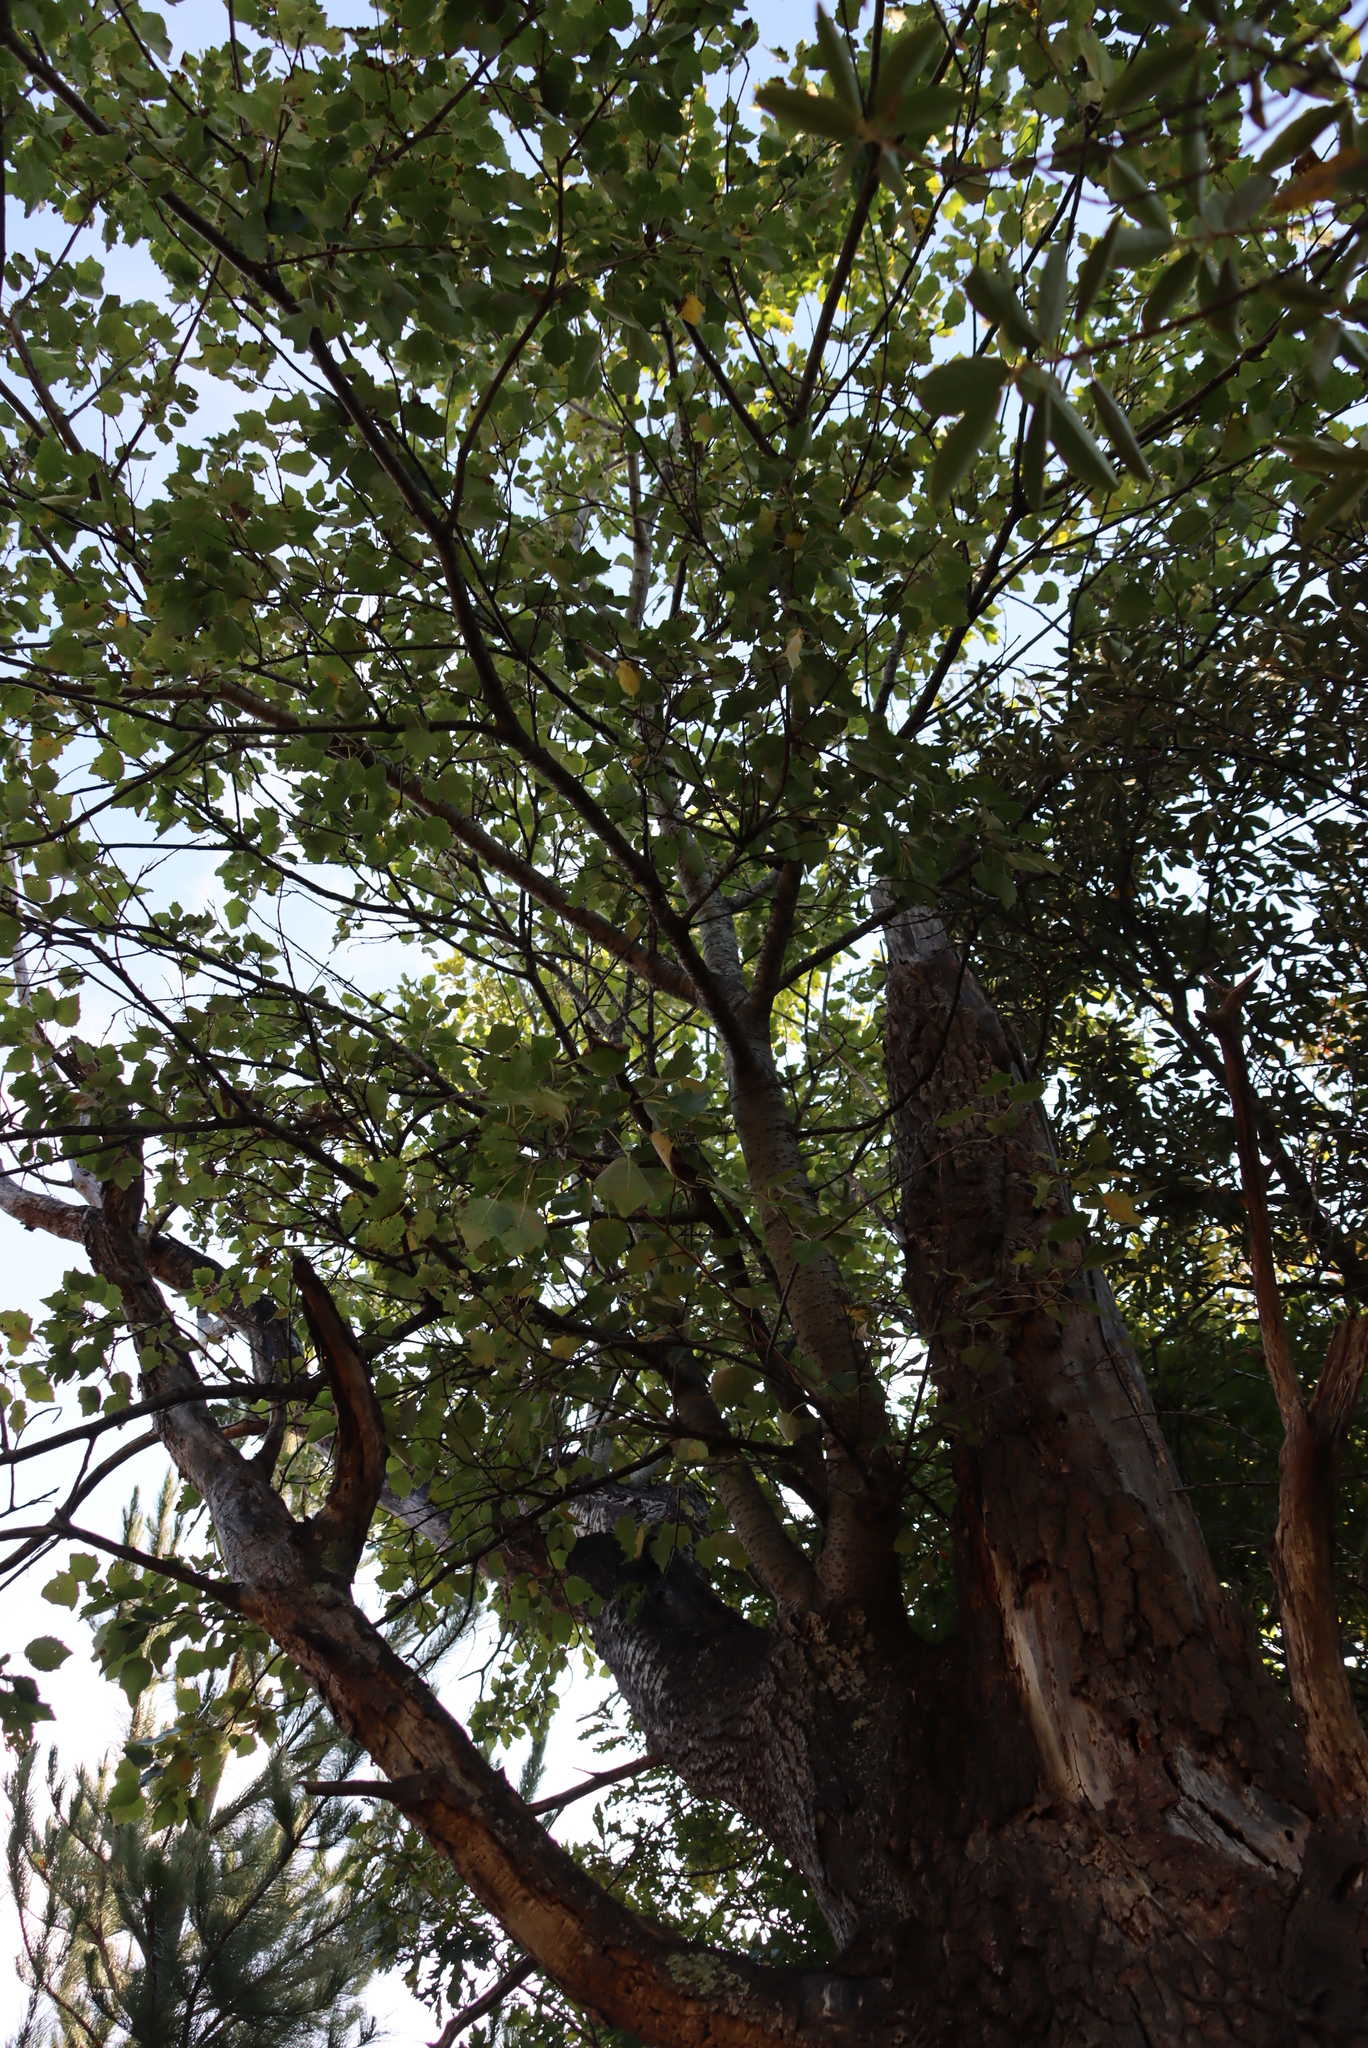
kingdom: Plantae
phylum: Tracheophyta
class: Magnoliopsida
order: Malpighiales
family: Salicaceae
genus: Populus
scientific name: Populus alba
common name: White poplar
